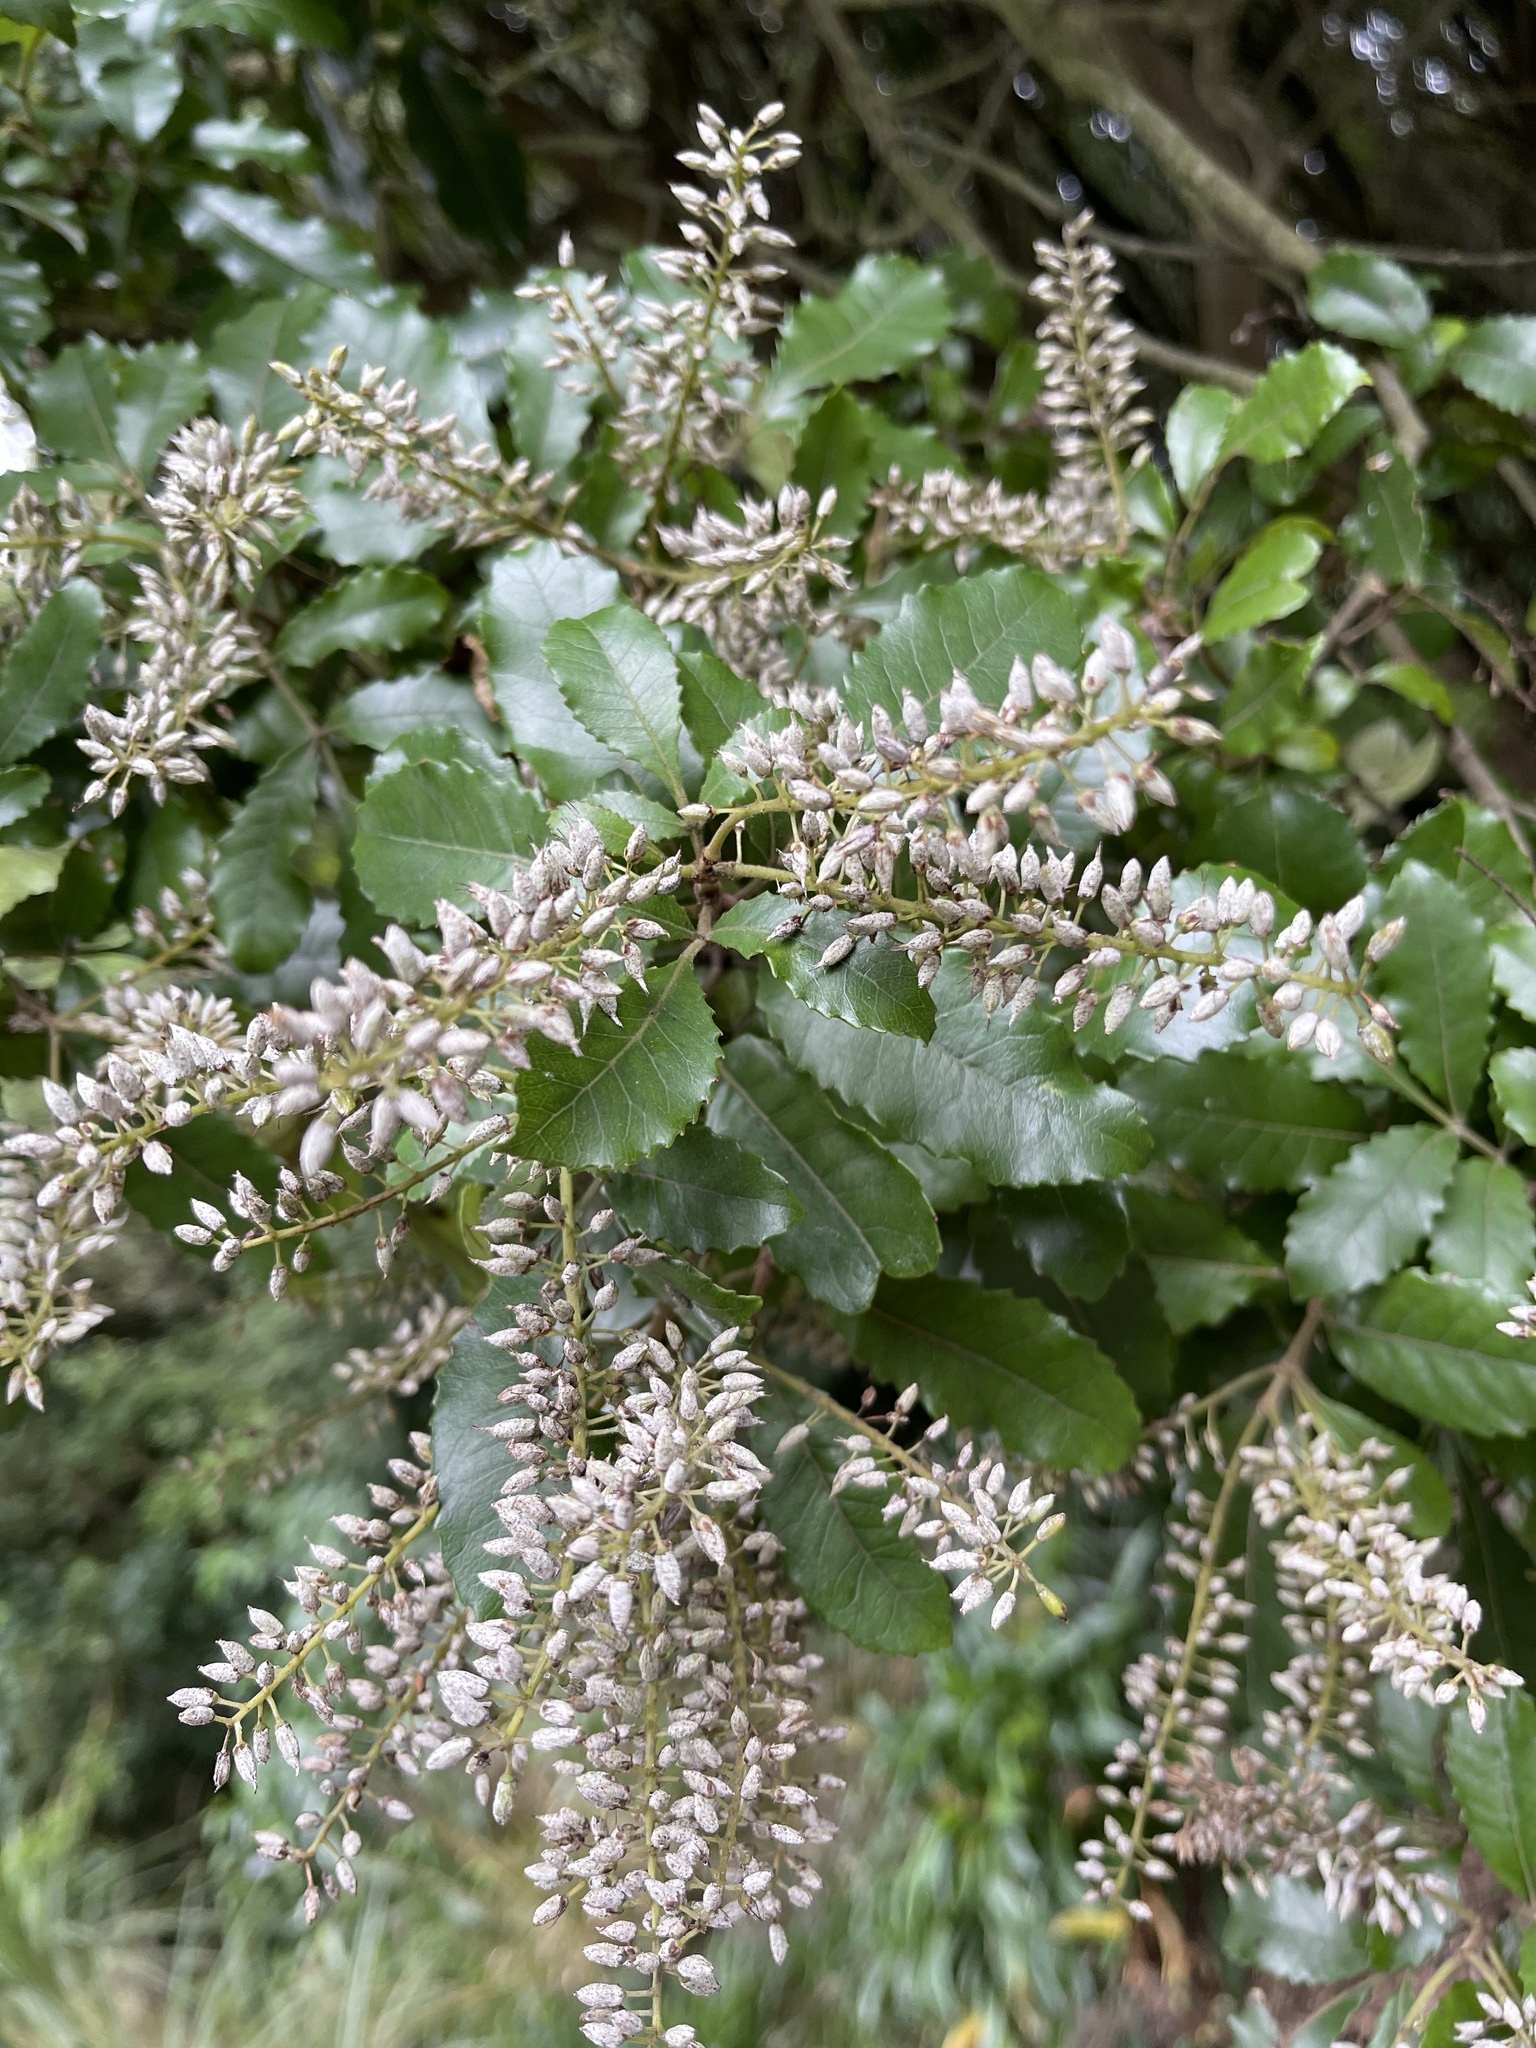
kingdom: Plantae
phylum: Tracheophyta
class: Magnoliopsida
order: Oxalidales
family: Cunoniaceae
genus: Pterophylla
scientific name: Pterophylla racemosa
